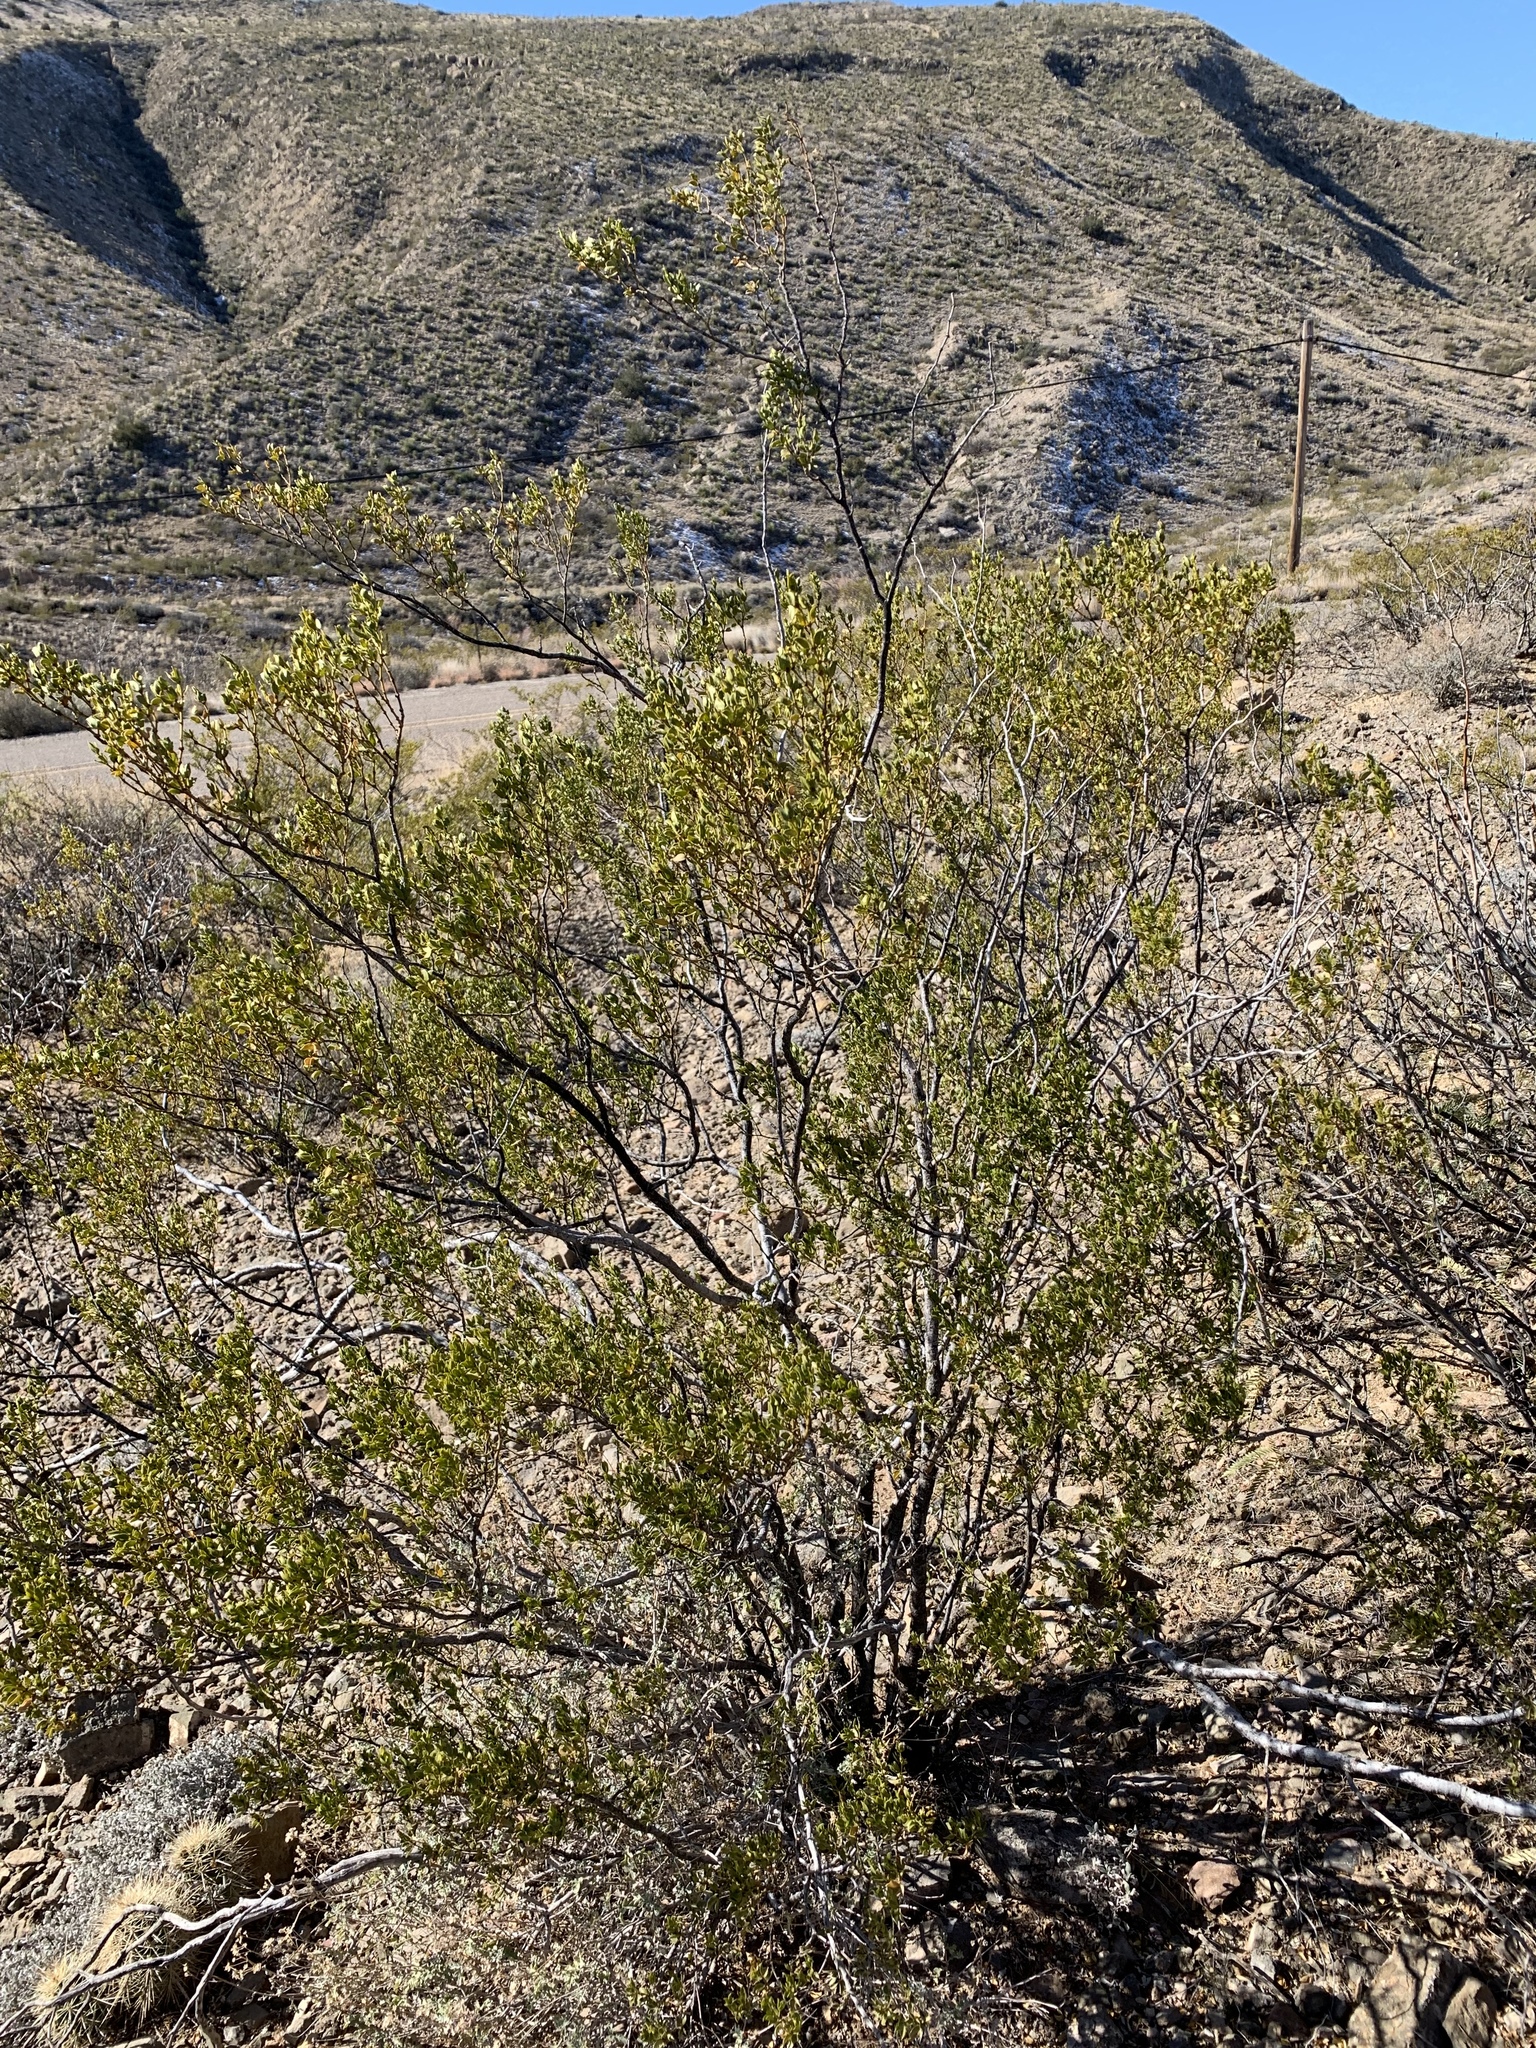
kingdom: Plantae
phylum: Tracheophyta
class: Magnoliopsida
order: Zygophyllales
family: Zygophyllaceae
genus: Larrea
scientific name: Larrea tridentata
